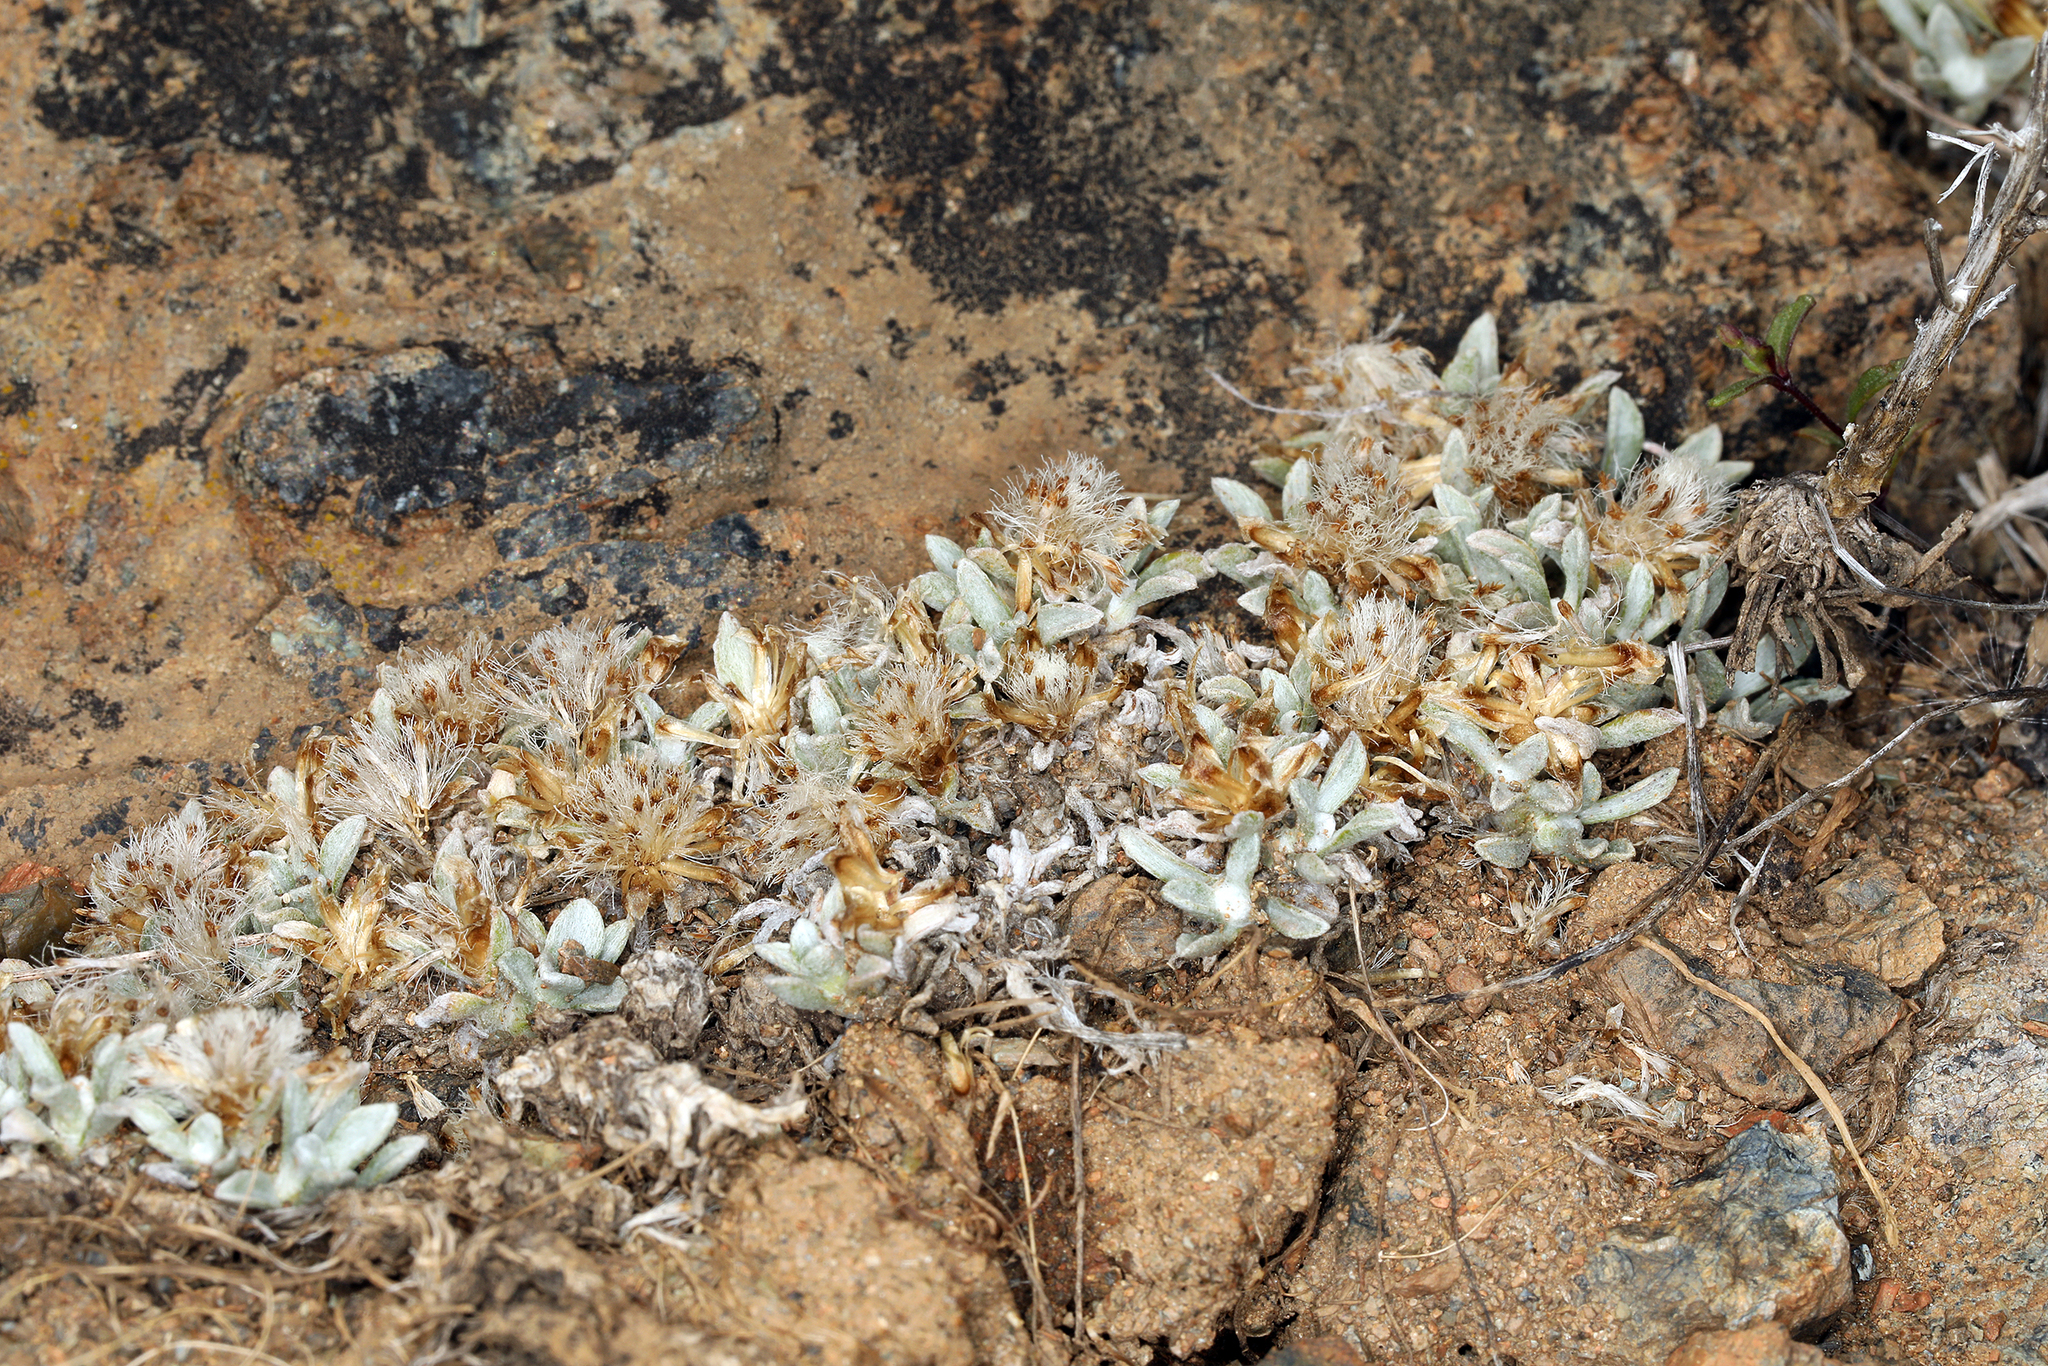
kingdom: Plantae
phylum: Tracheophyta
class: Magnoliopsida
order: Asterales
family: Asteraceae
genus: Antennaria
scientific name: Antennaria dimorpha
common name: Cushion pussytoes
